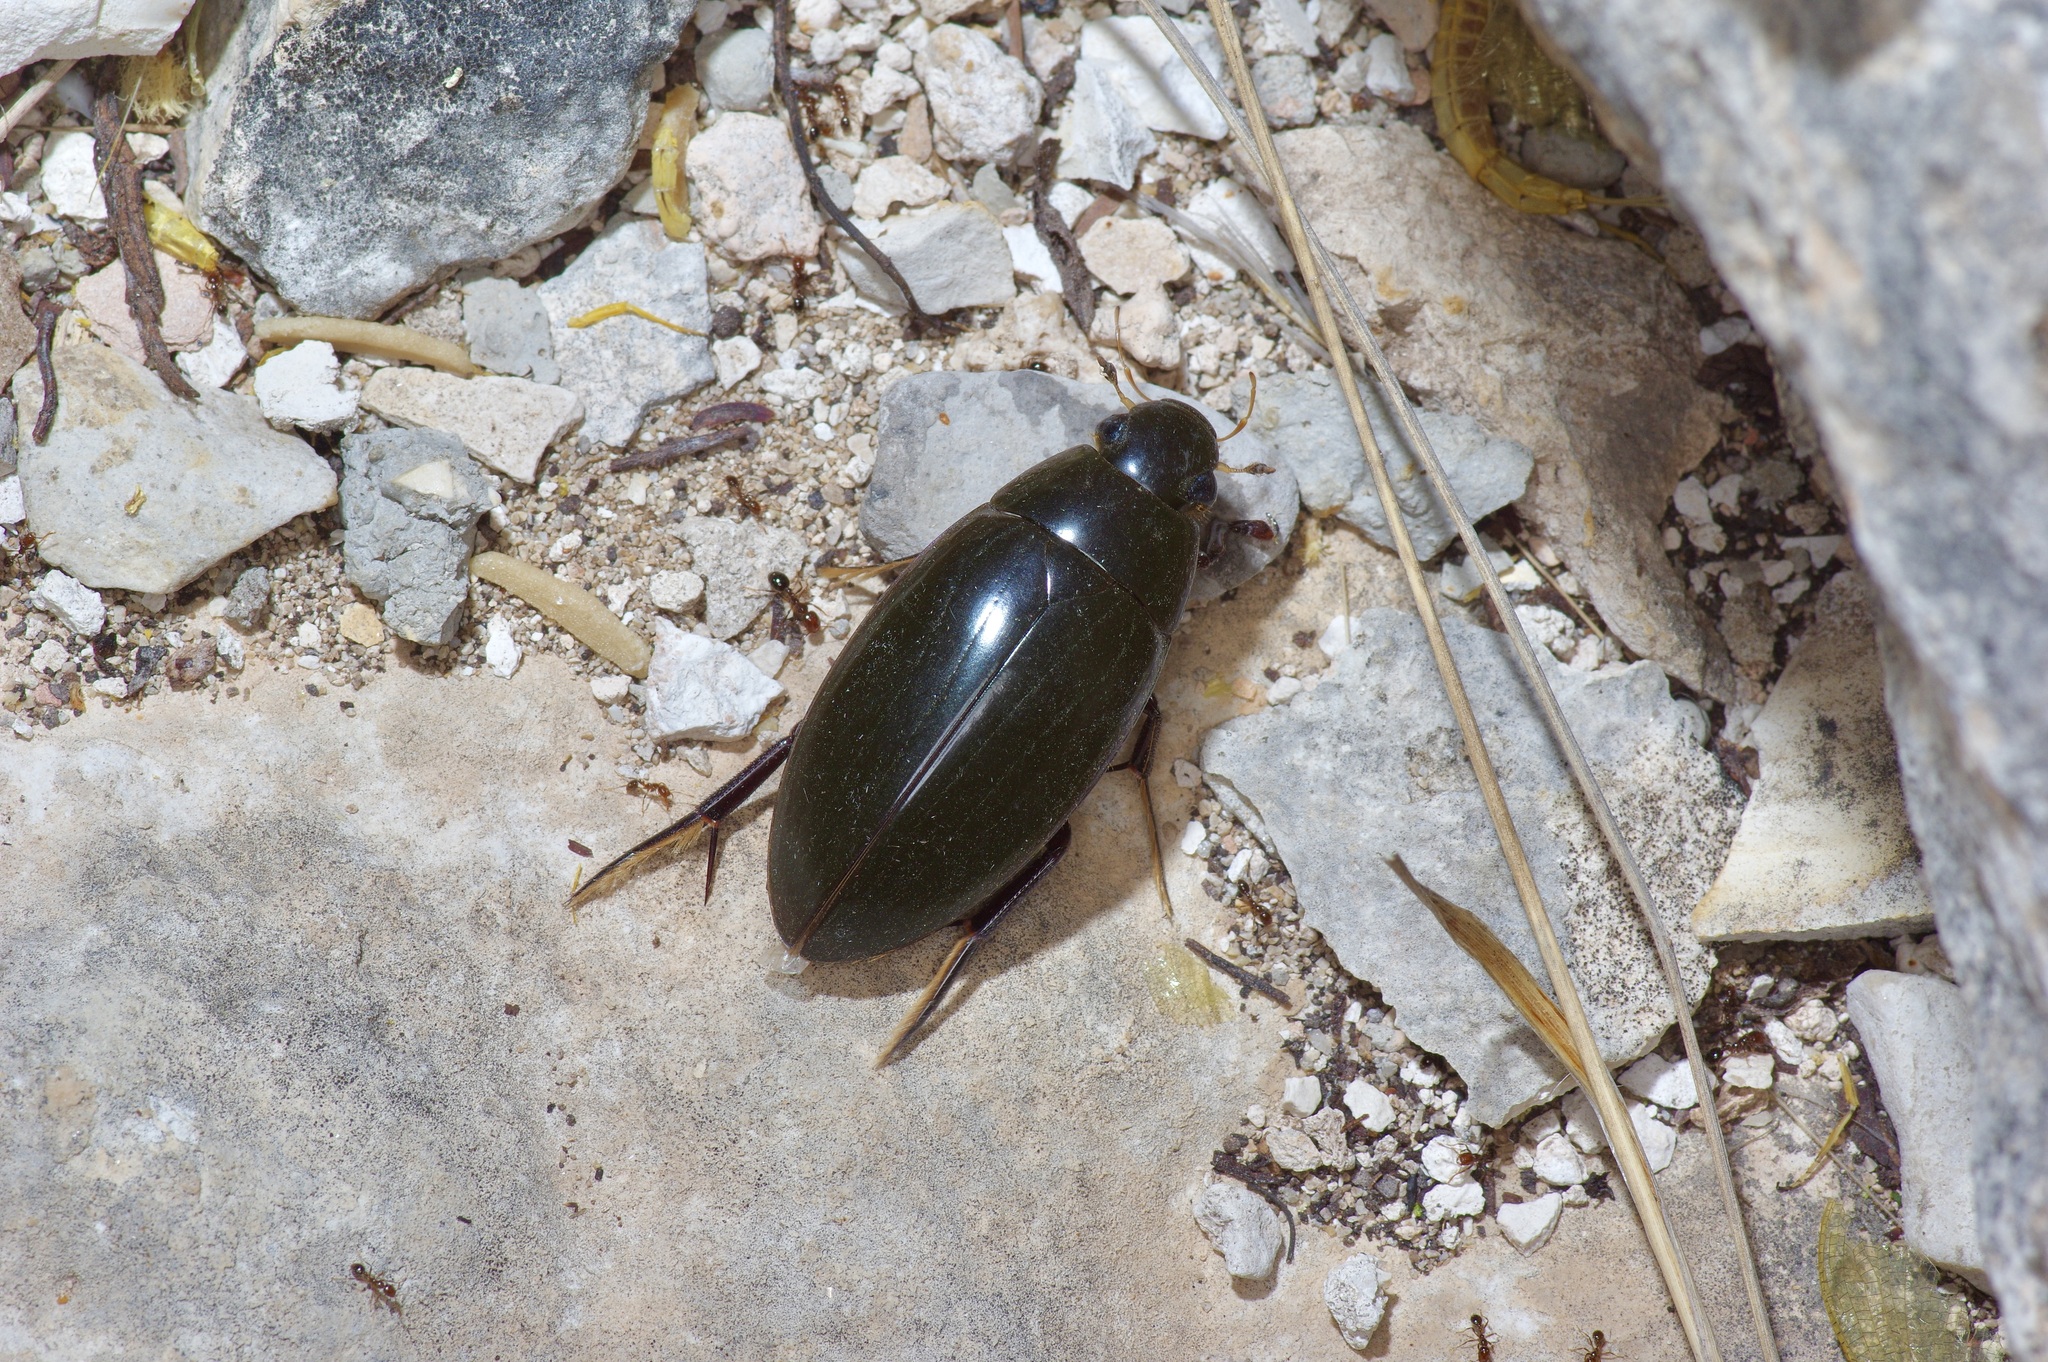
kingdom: Animalia
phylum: Arthropoda
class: Insecta
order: Coleoptera
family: Hydrophilidae
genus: Hydrophilus
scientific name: Hydrophilus triangularis
